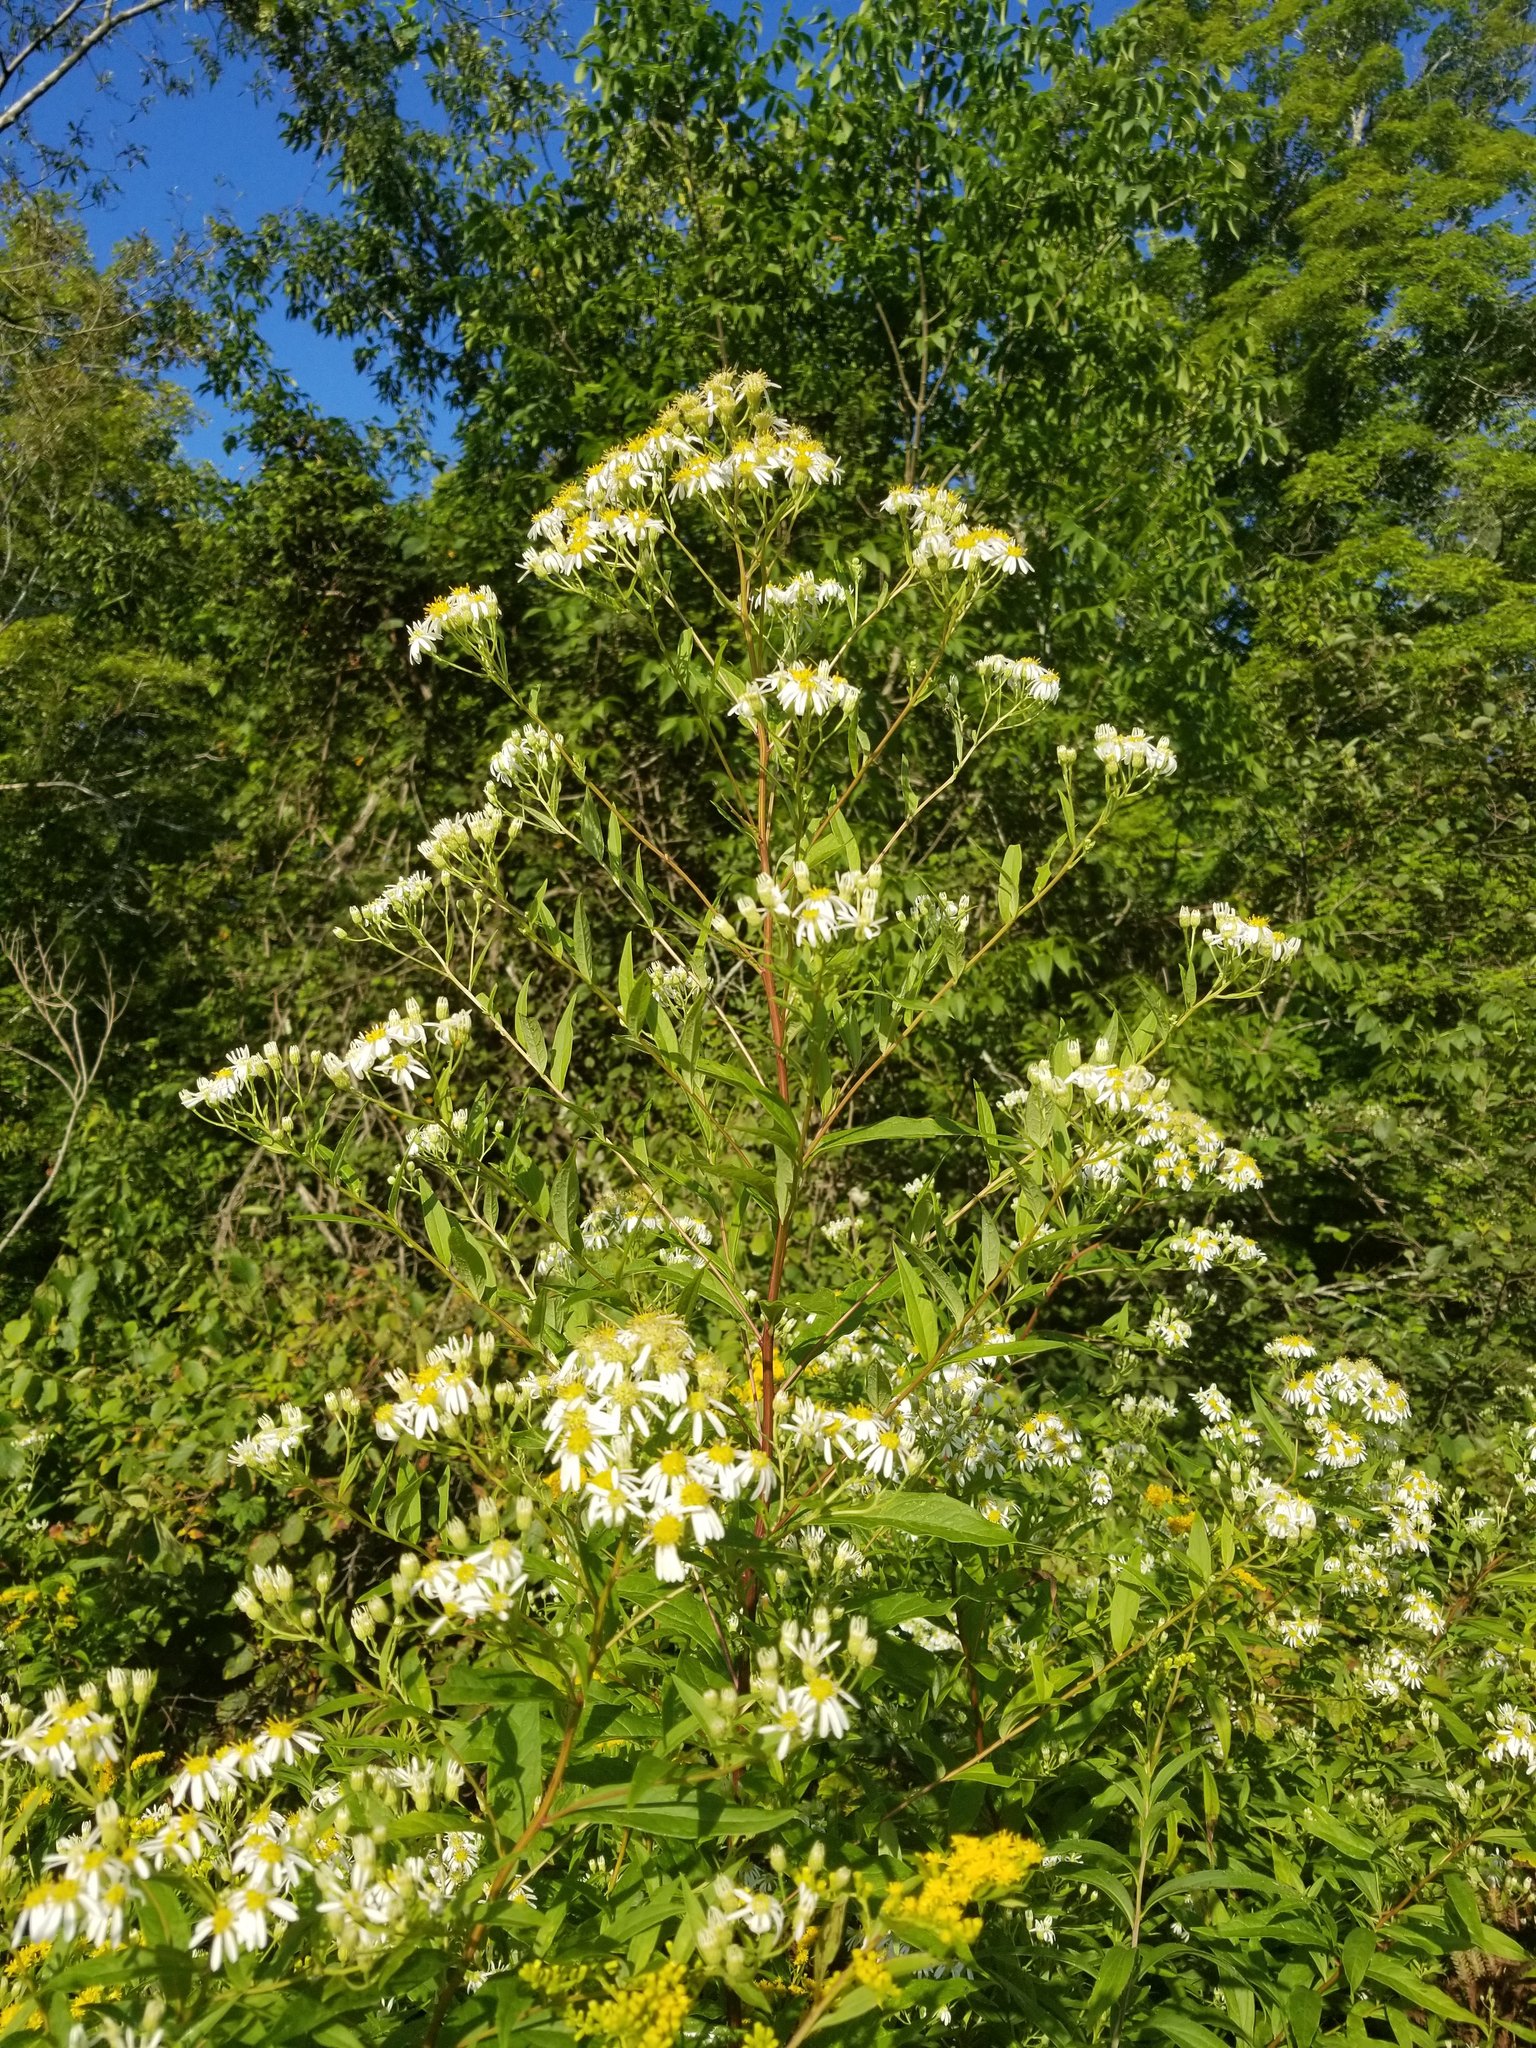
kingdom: Plantae
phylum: Tracheophyta
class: Magnoliopsida
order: Asterales
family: Asteraceae
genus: Doellingeria
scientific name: Doellingeria umbellata
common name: Flat-top white aster
